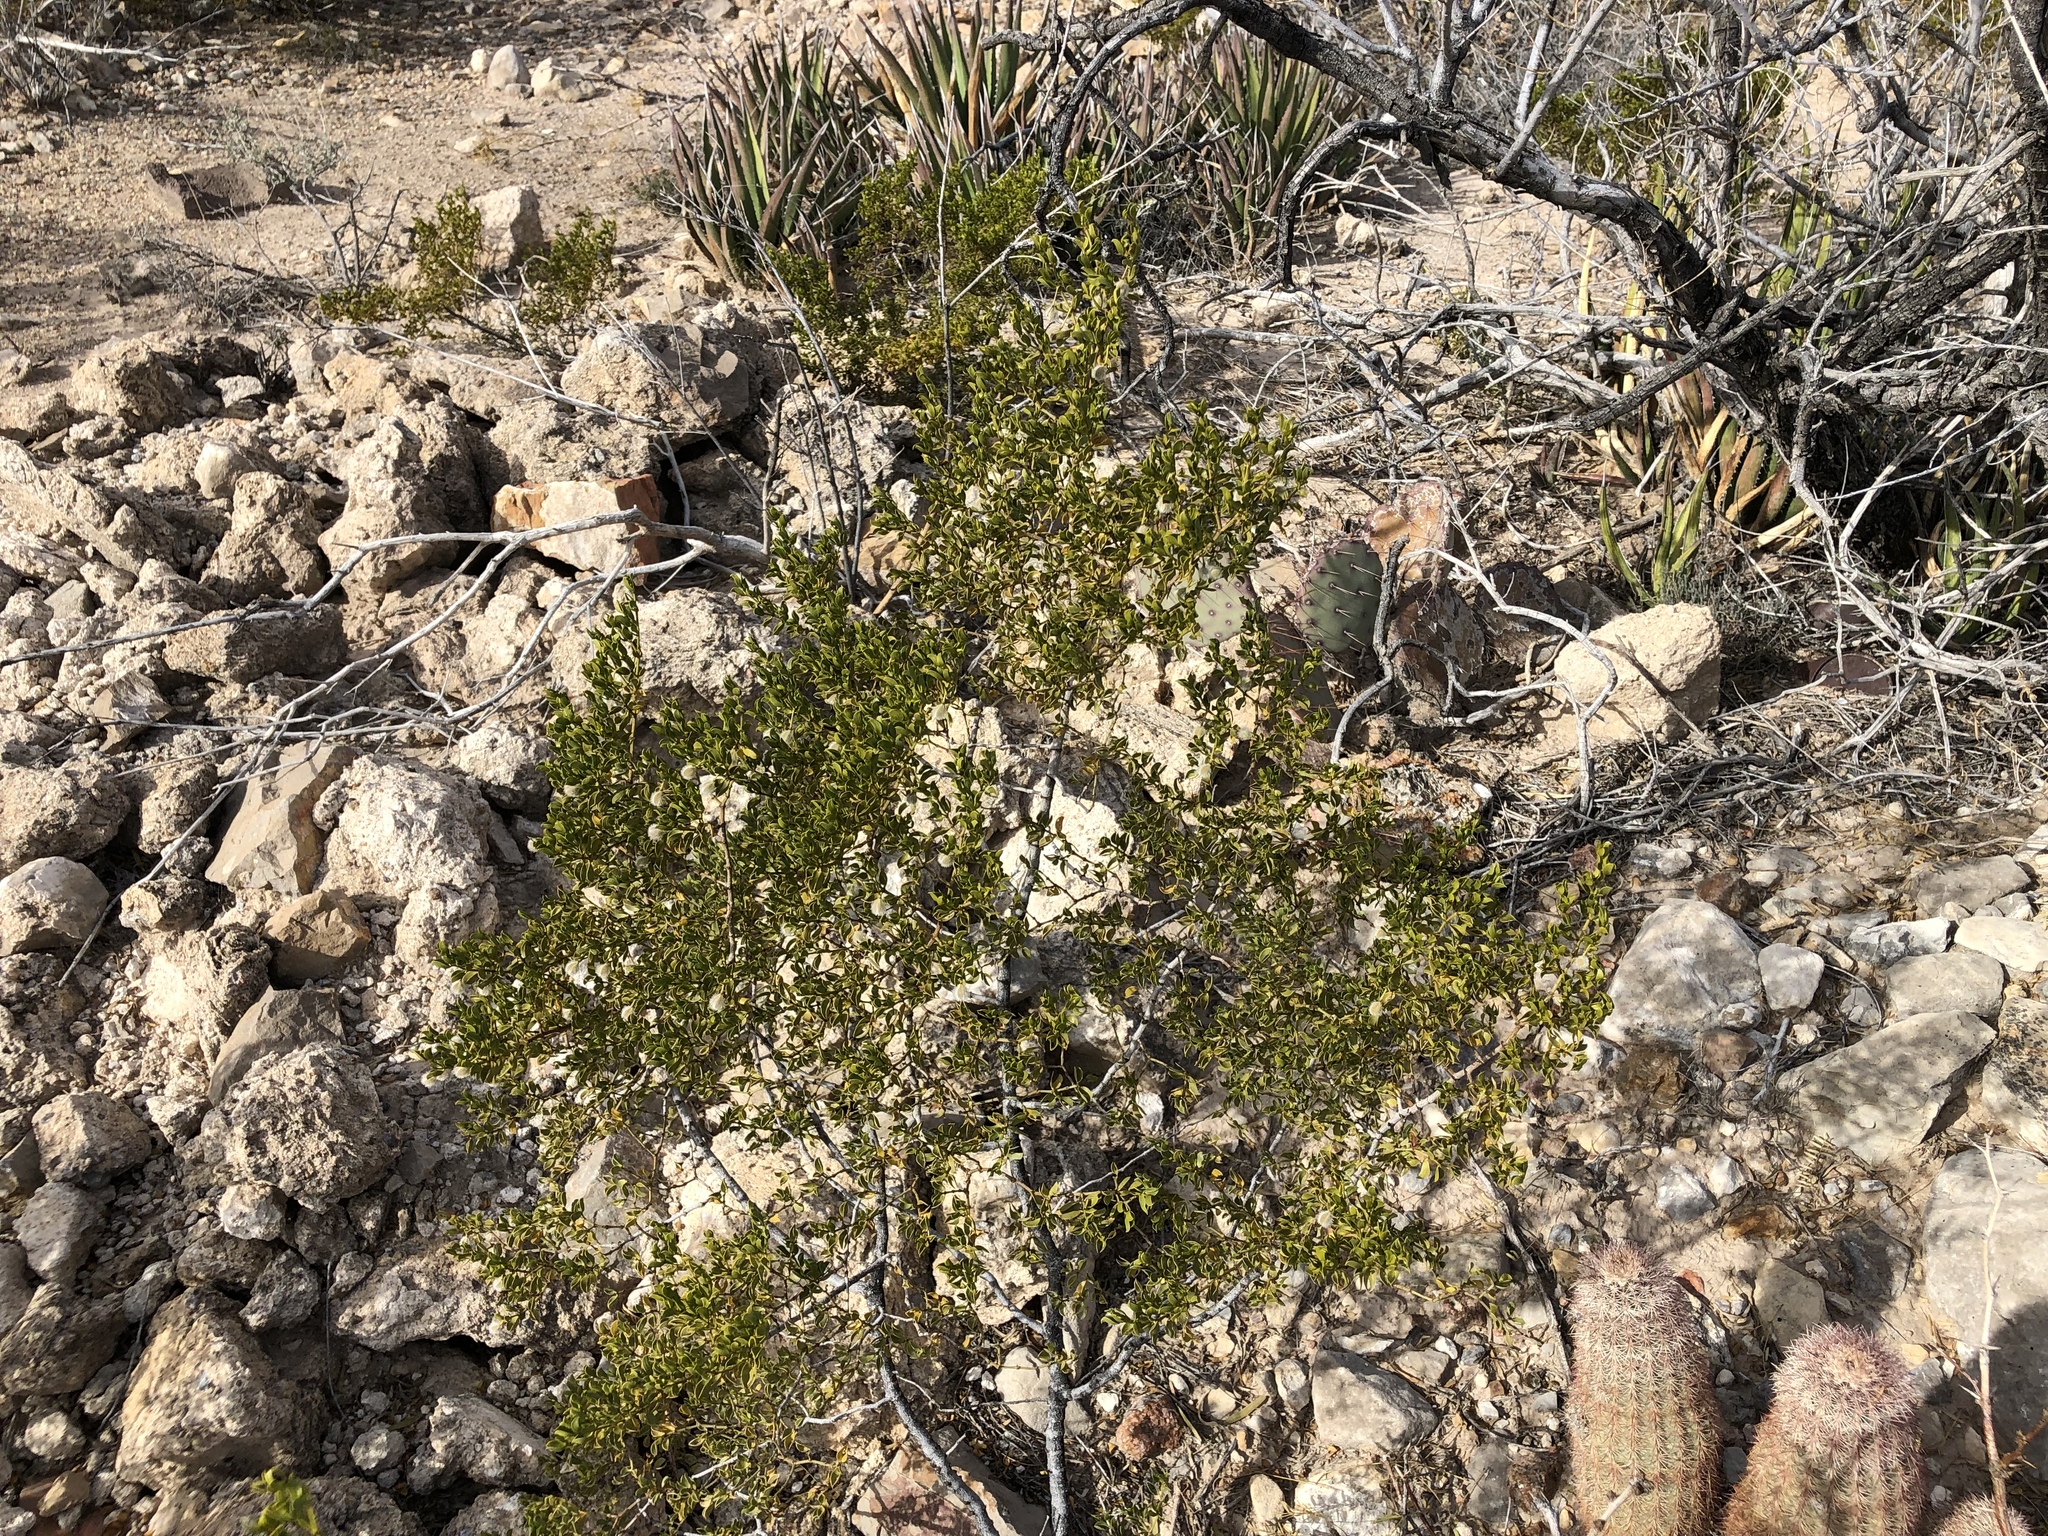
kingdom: Plantae
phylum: Tracheophyta
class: Magnoliopsida
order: Zygophyllales
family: Zygophyllaceae
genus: Larrea
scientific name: Larrea tridentata
